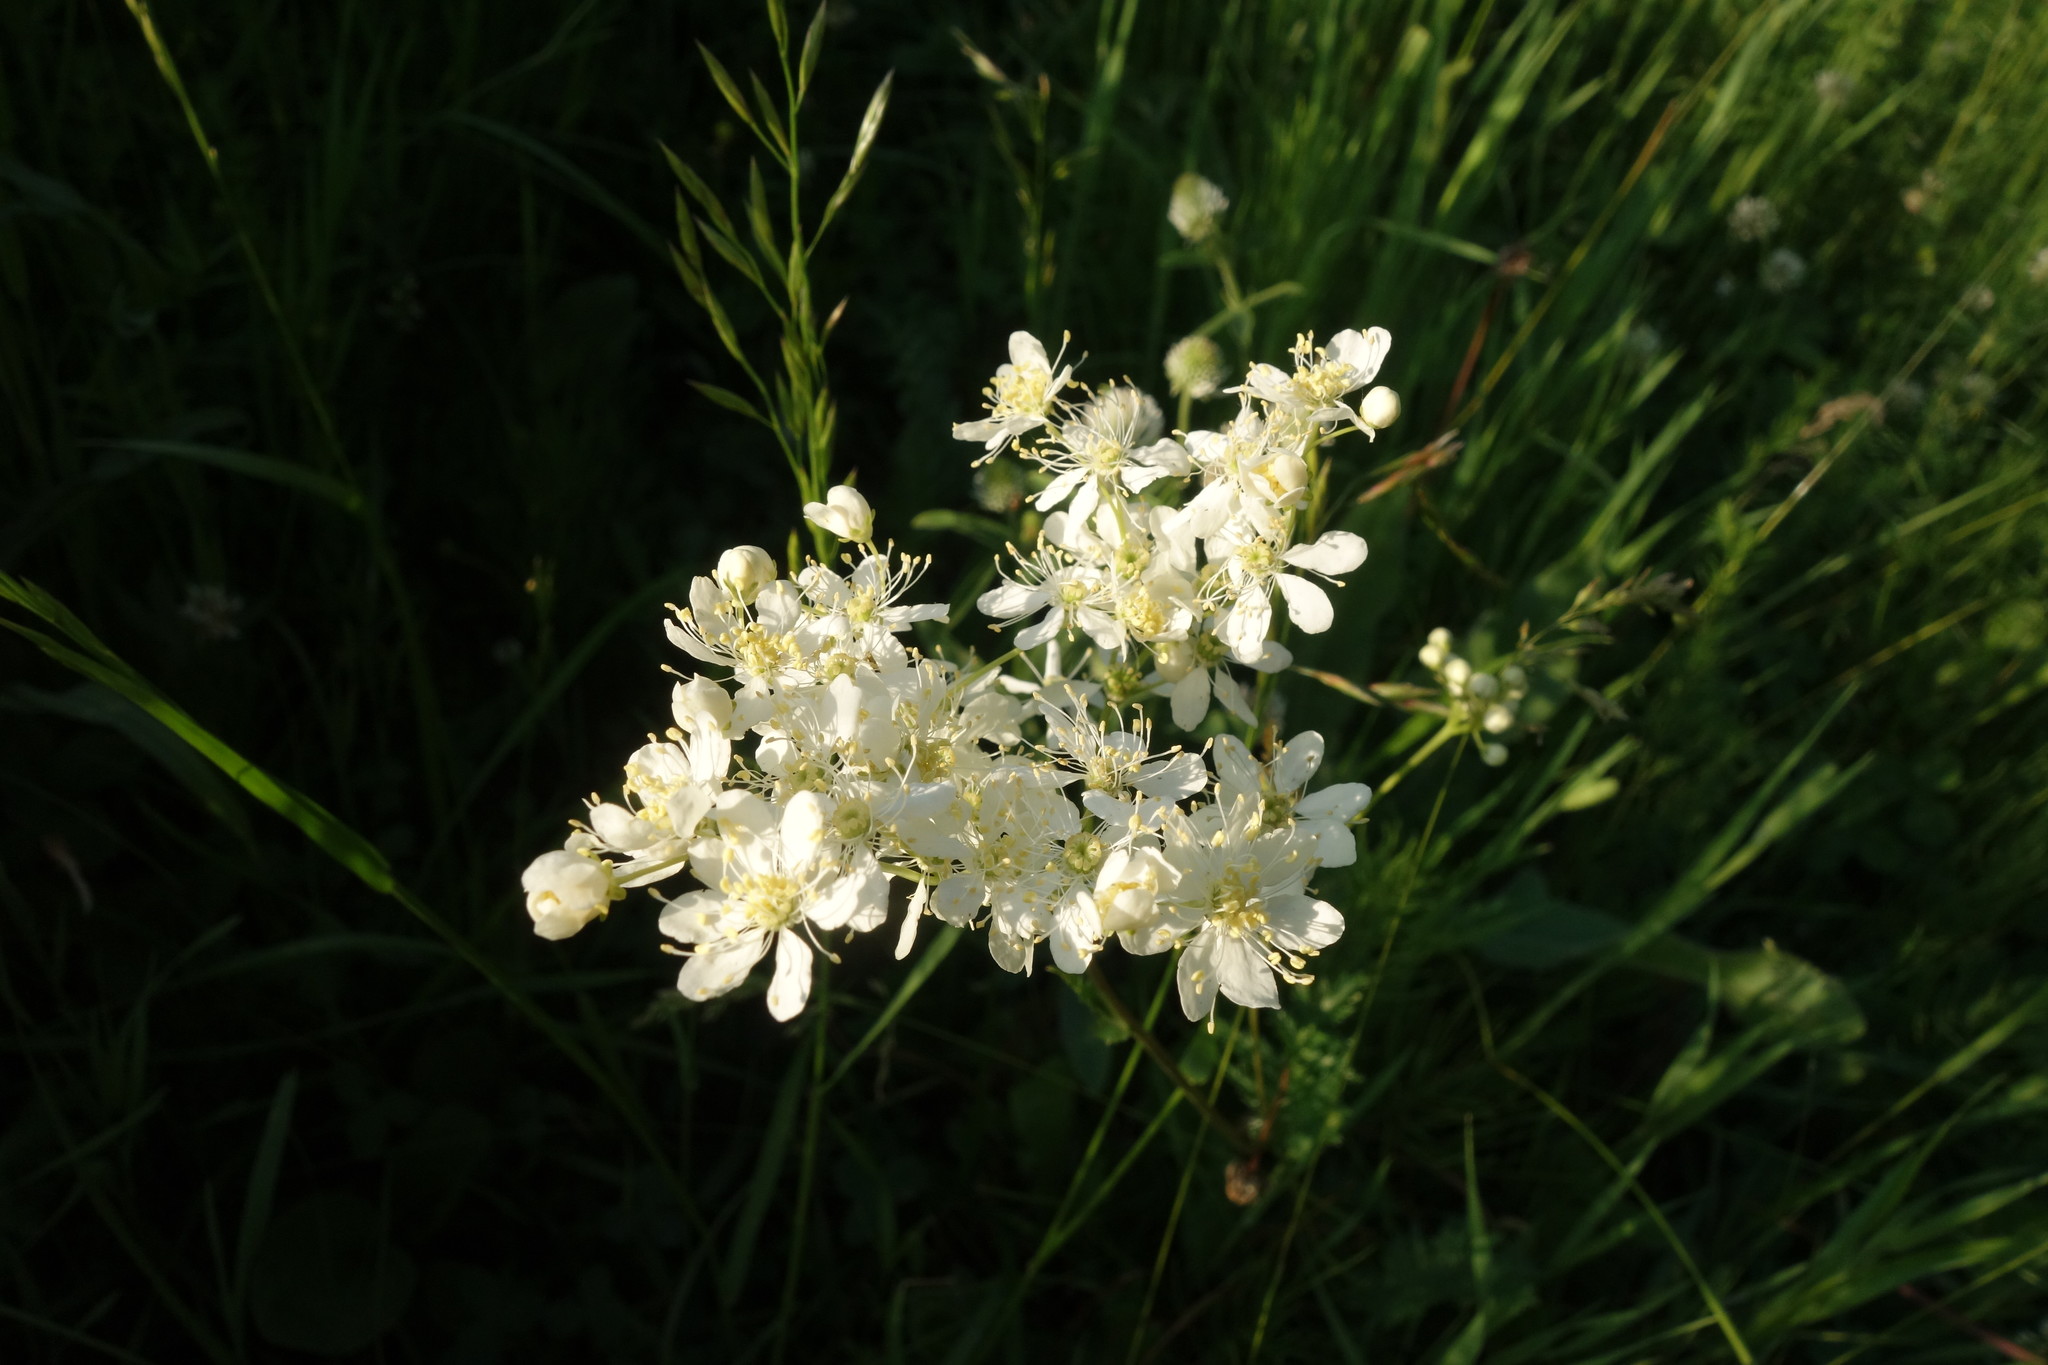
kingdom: Plantae
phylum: Tracheophyta
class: Magnoliopsida
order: Rosales
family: Rosaceae
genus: Filipendula
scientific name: Filipendula vulgaris
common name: Dropwort
